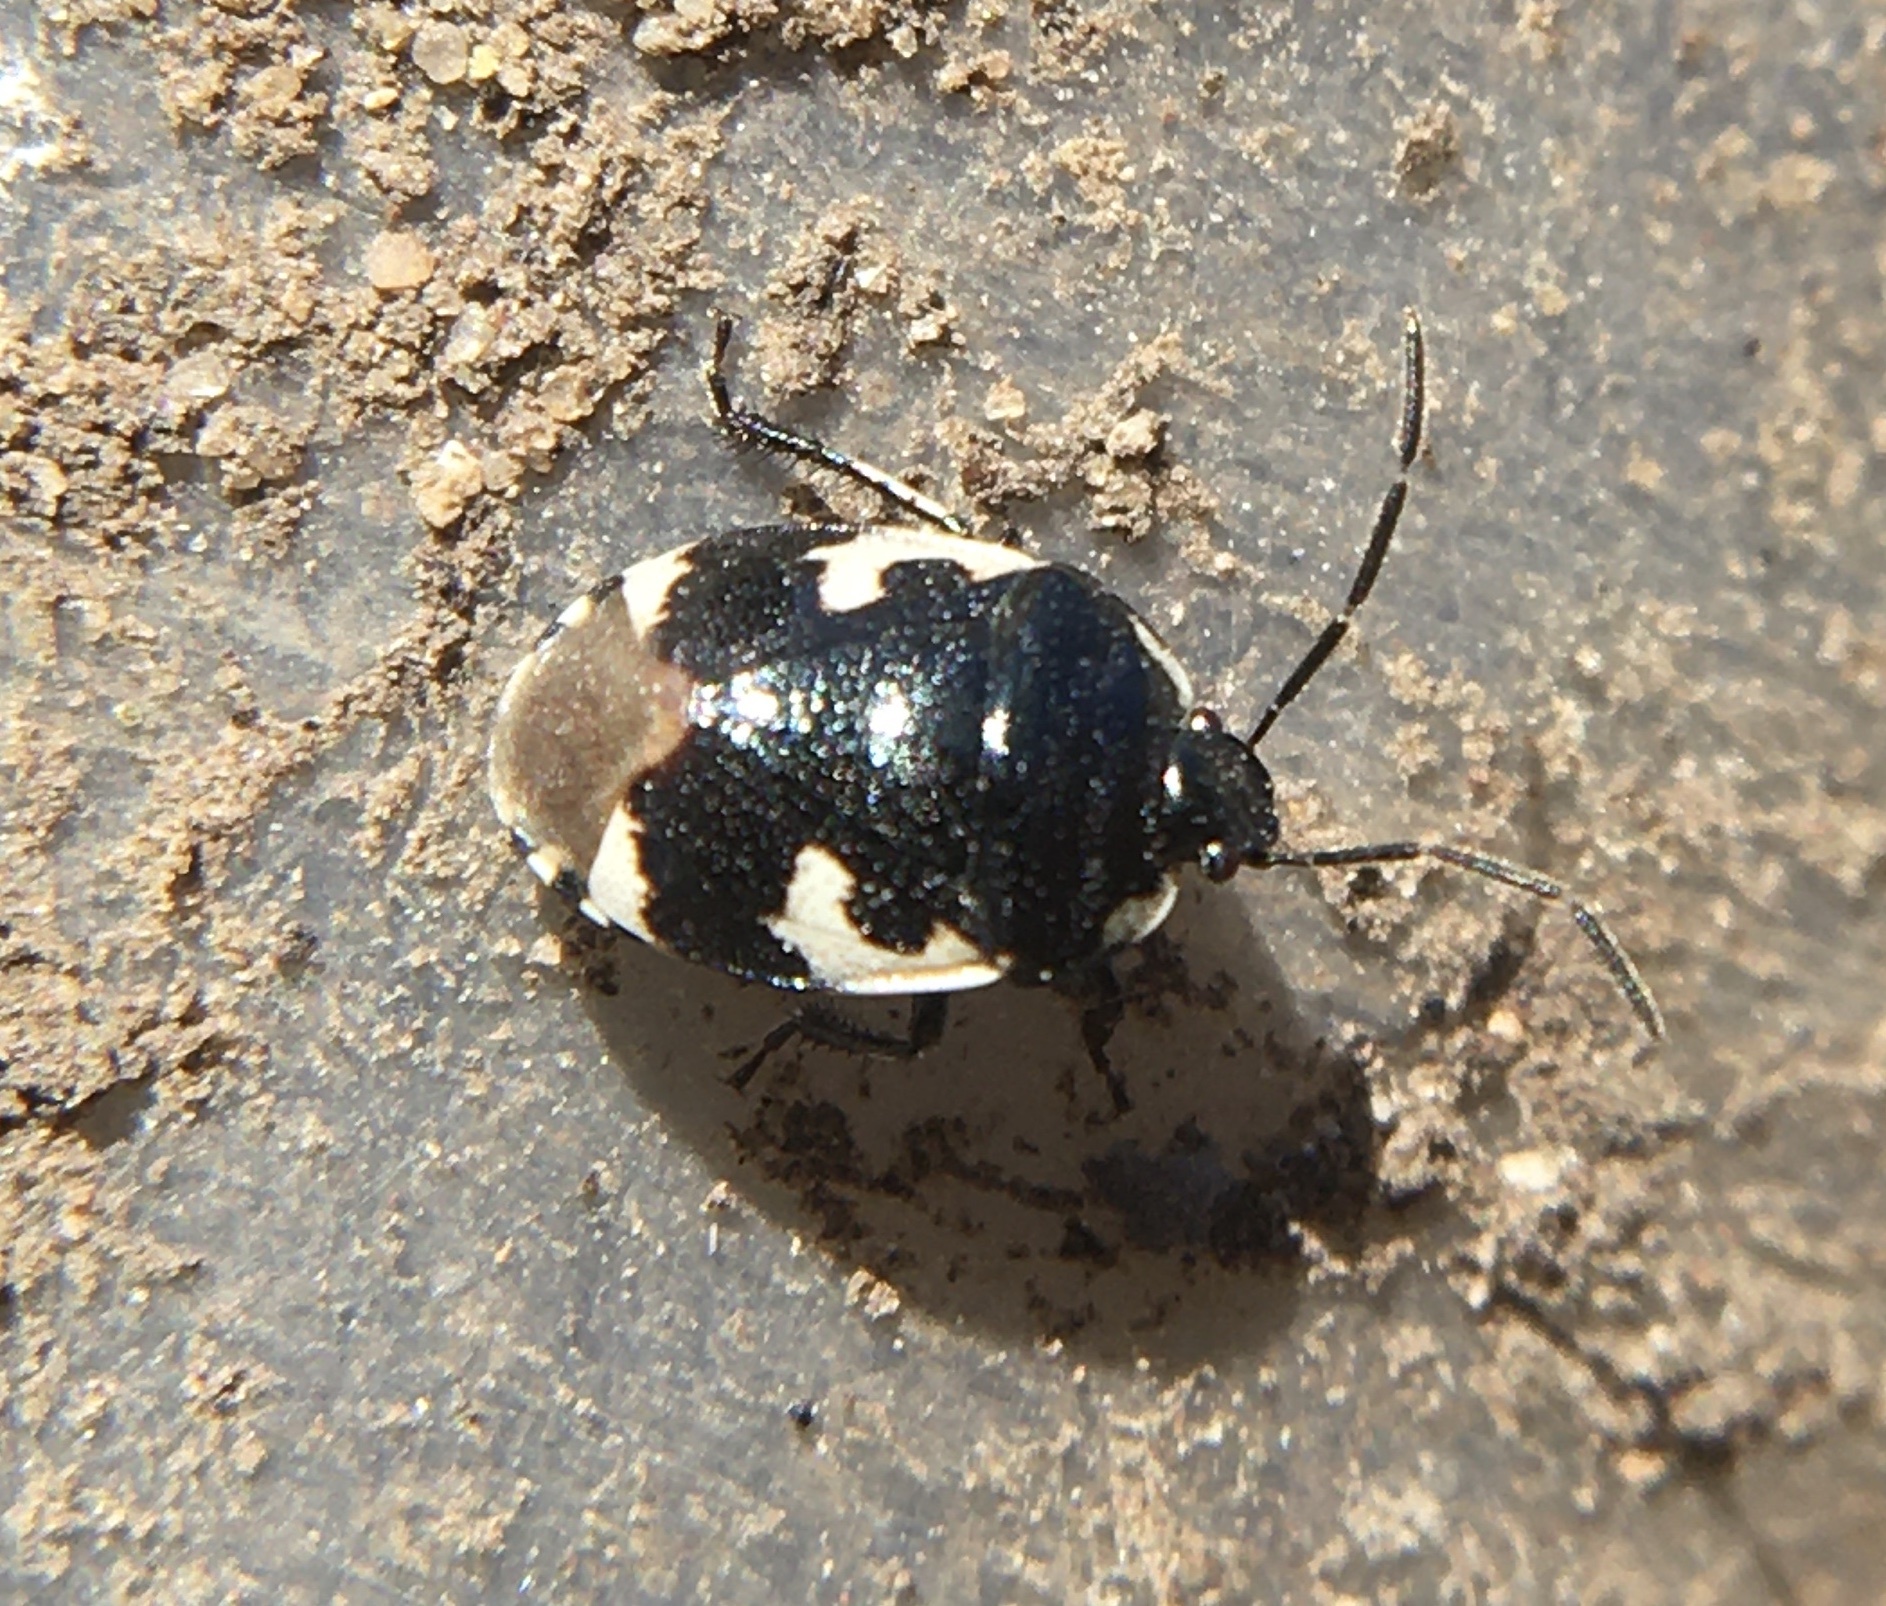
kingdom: Animalia
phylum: Arthropoda
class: Insecta
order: Hemiptera
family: Cydnidae
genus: Tritomegas
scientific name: Tritomegas bicolor
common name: Pied shieldbug
